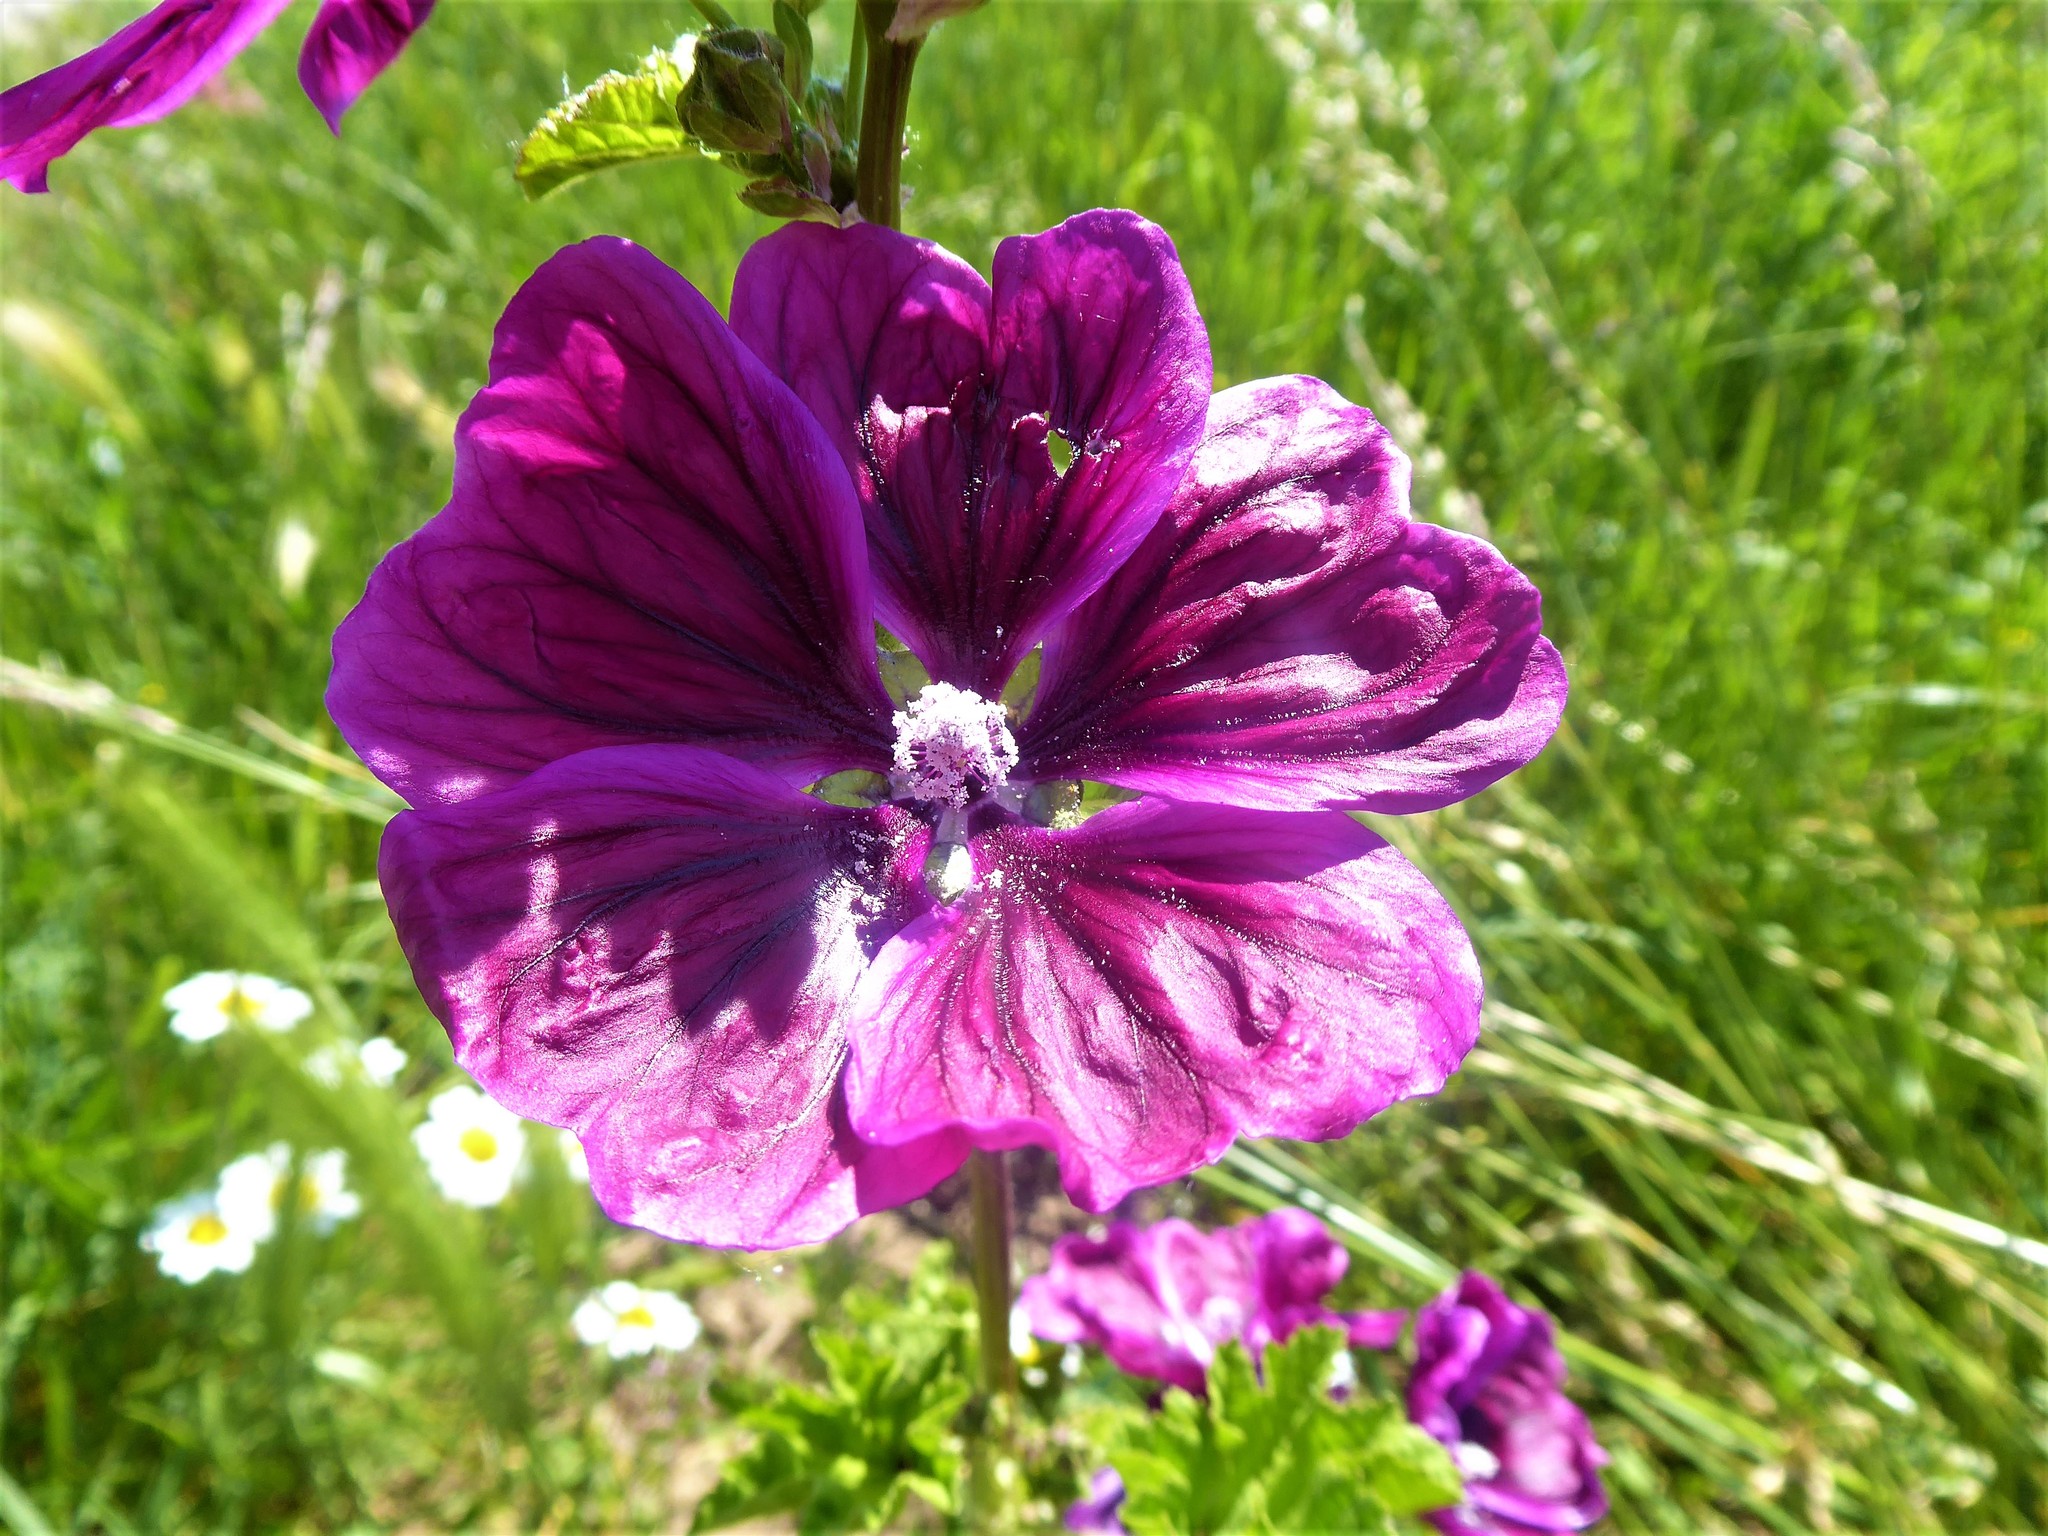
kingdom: Plantae
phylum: Tracheophyta
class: Magnoliopsida
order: Malvales
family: Malvaceae
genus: Malva
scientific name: Malva sylvestris
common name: Common mallow
